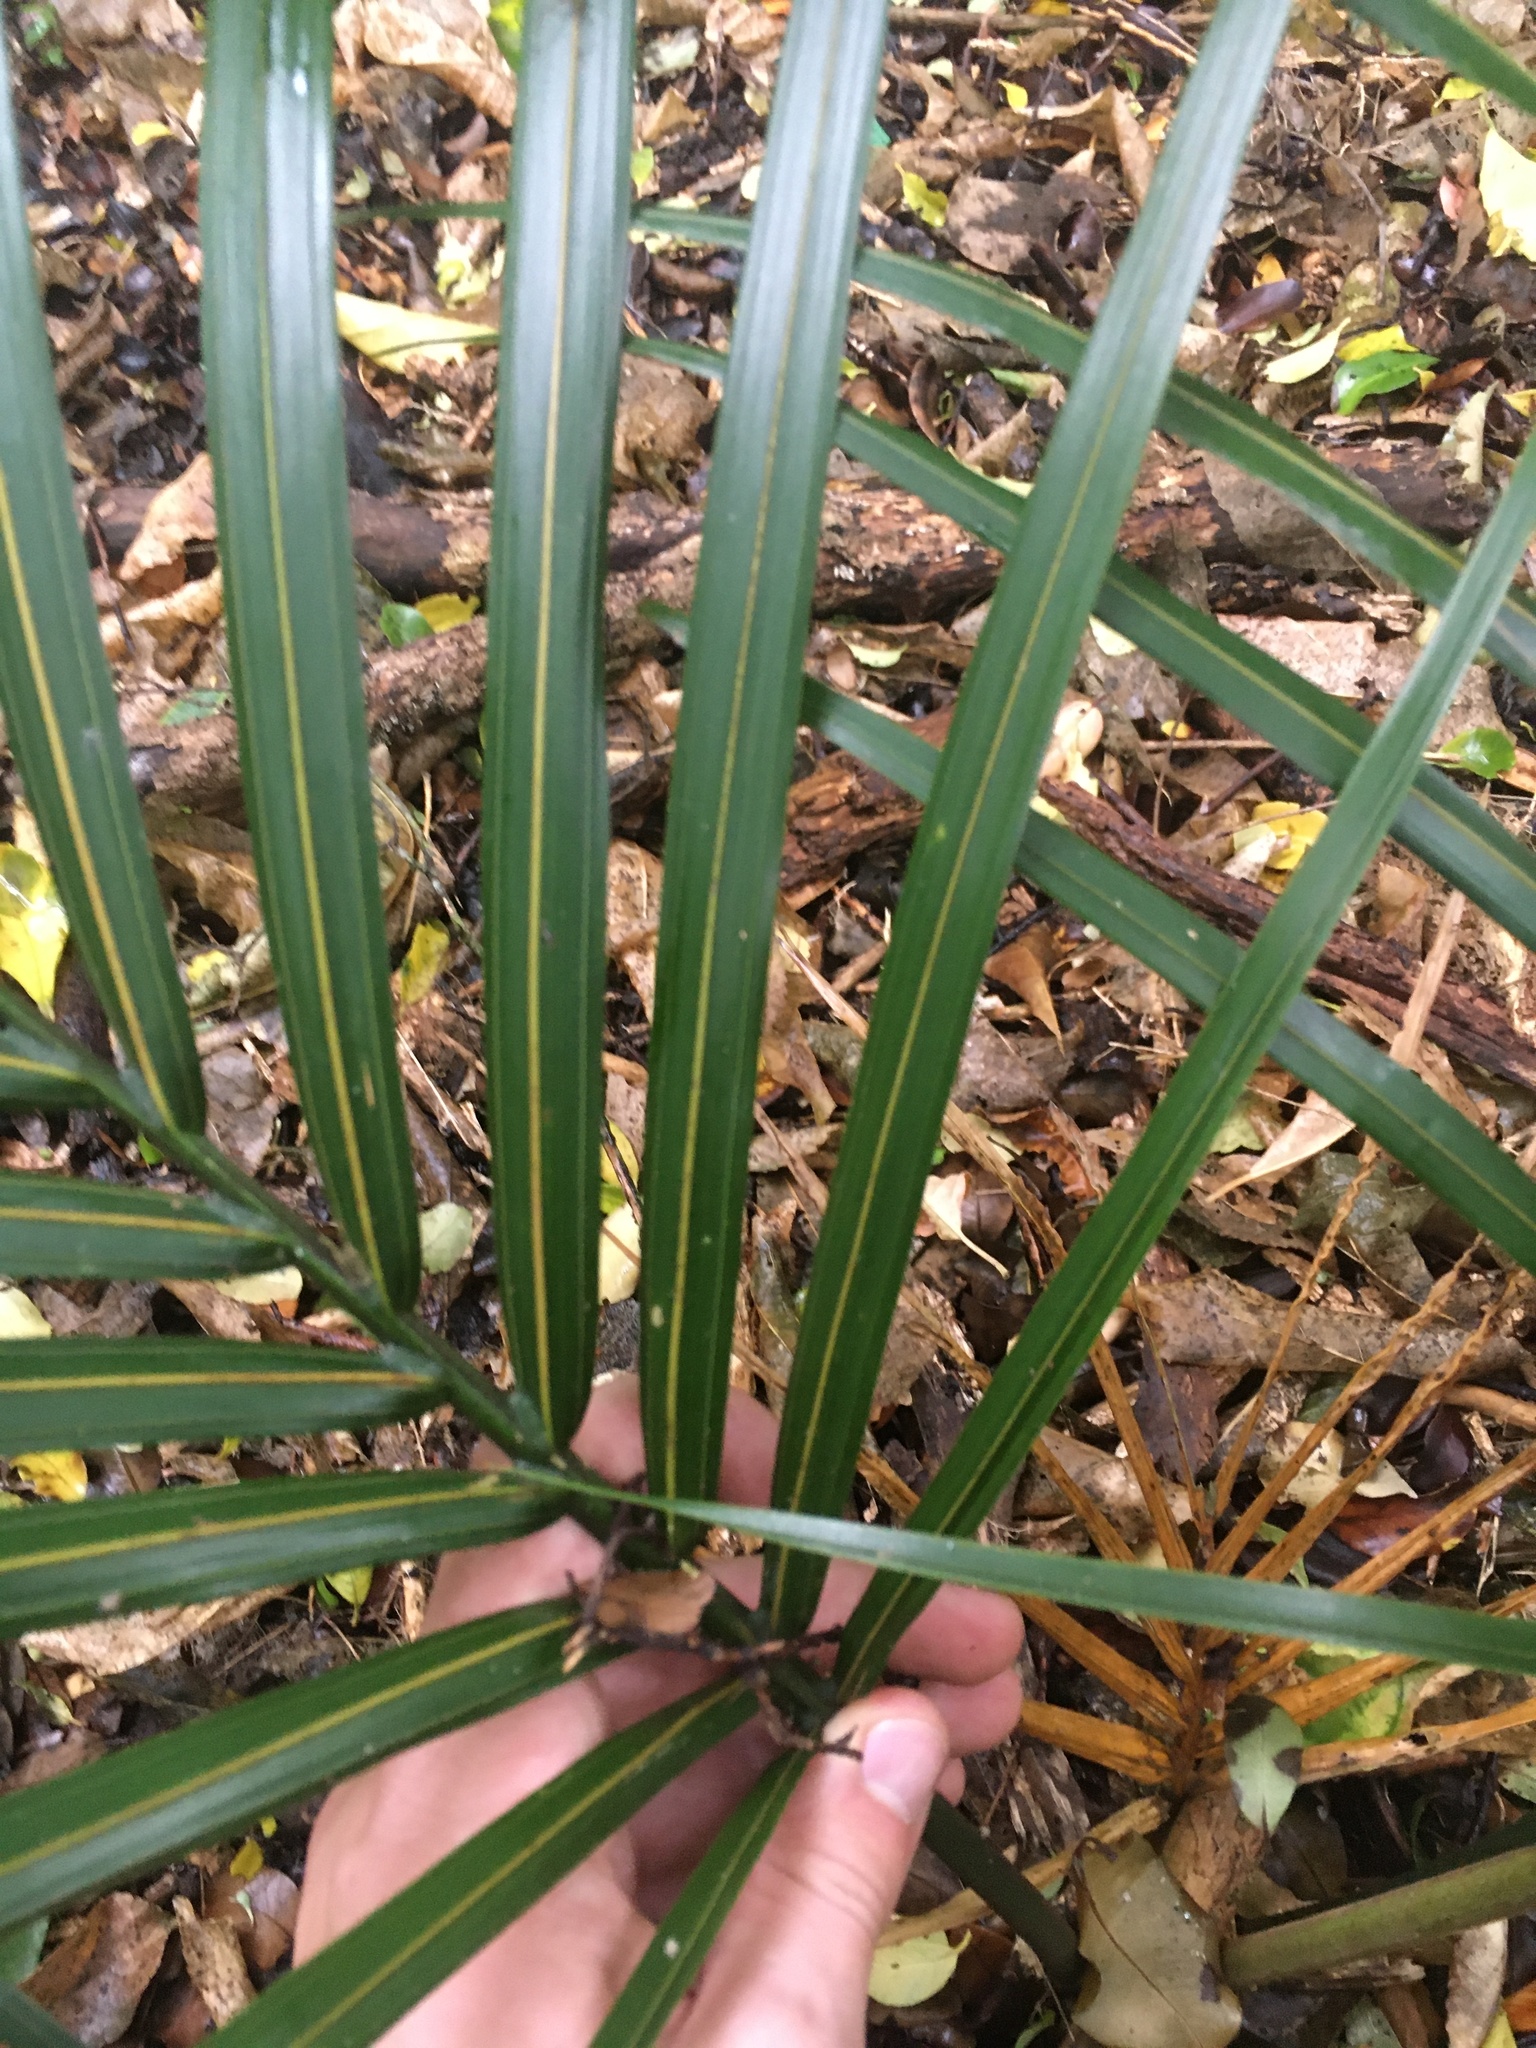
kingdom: Plantae
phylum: Tracheophyta
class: Liliopsida
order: Arecales
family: Arecaceae
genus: Rhopalostylis
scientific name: Rhopalostylis sapida
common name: Feather-duster palm
